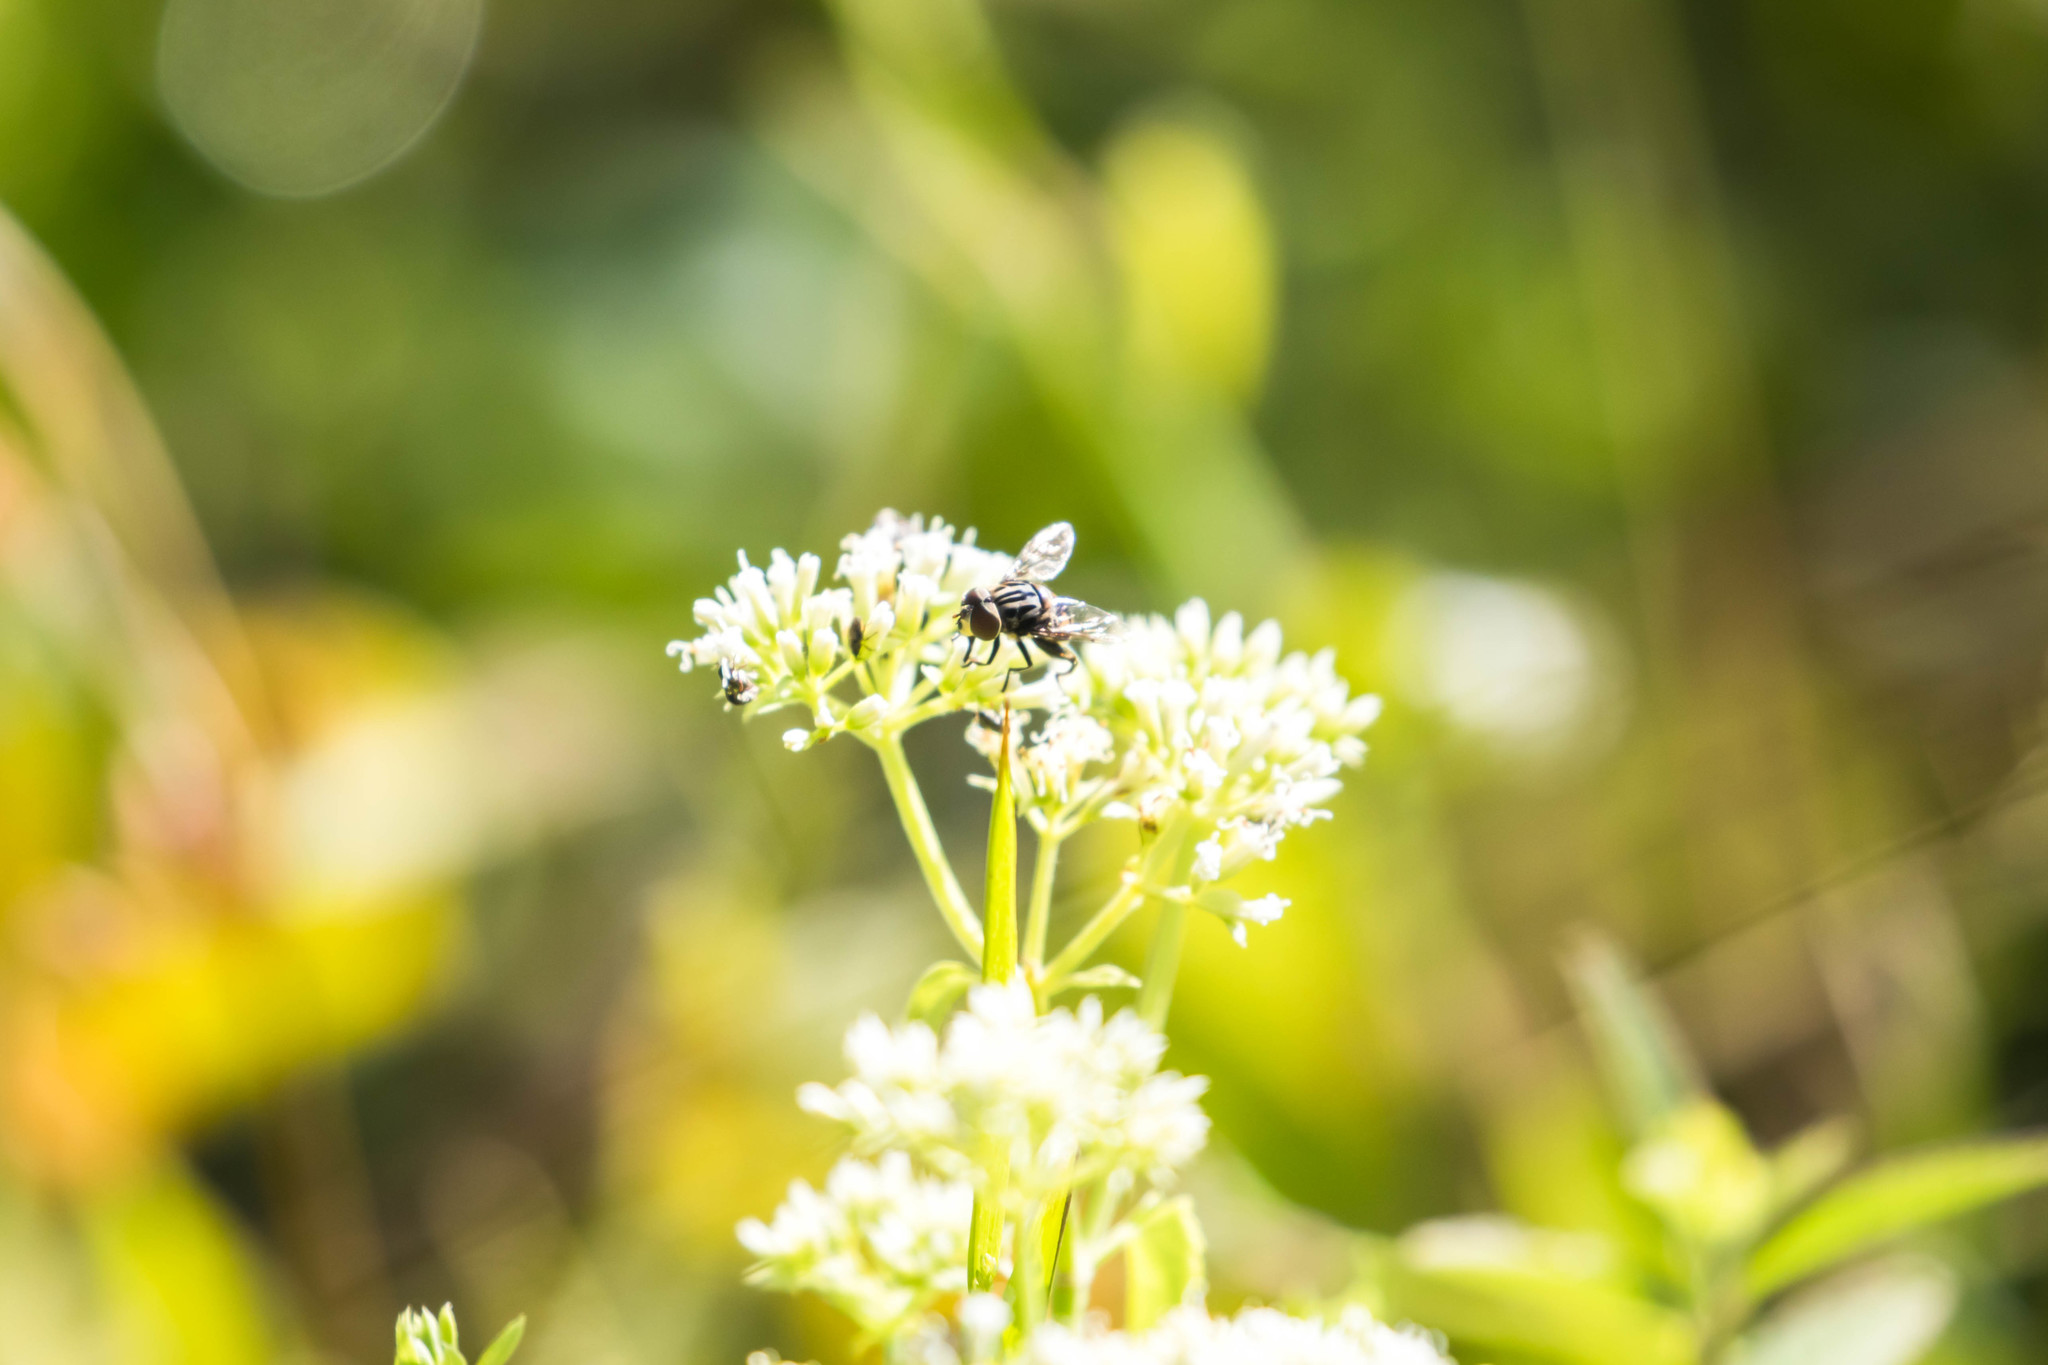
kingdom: Animalia
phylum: Arthropoda
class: Insecta
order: Diptera
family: Syrphidae
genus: Palpada
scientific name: Palpada furcata
